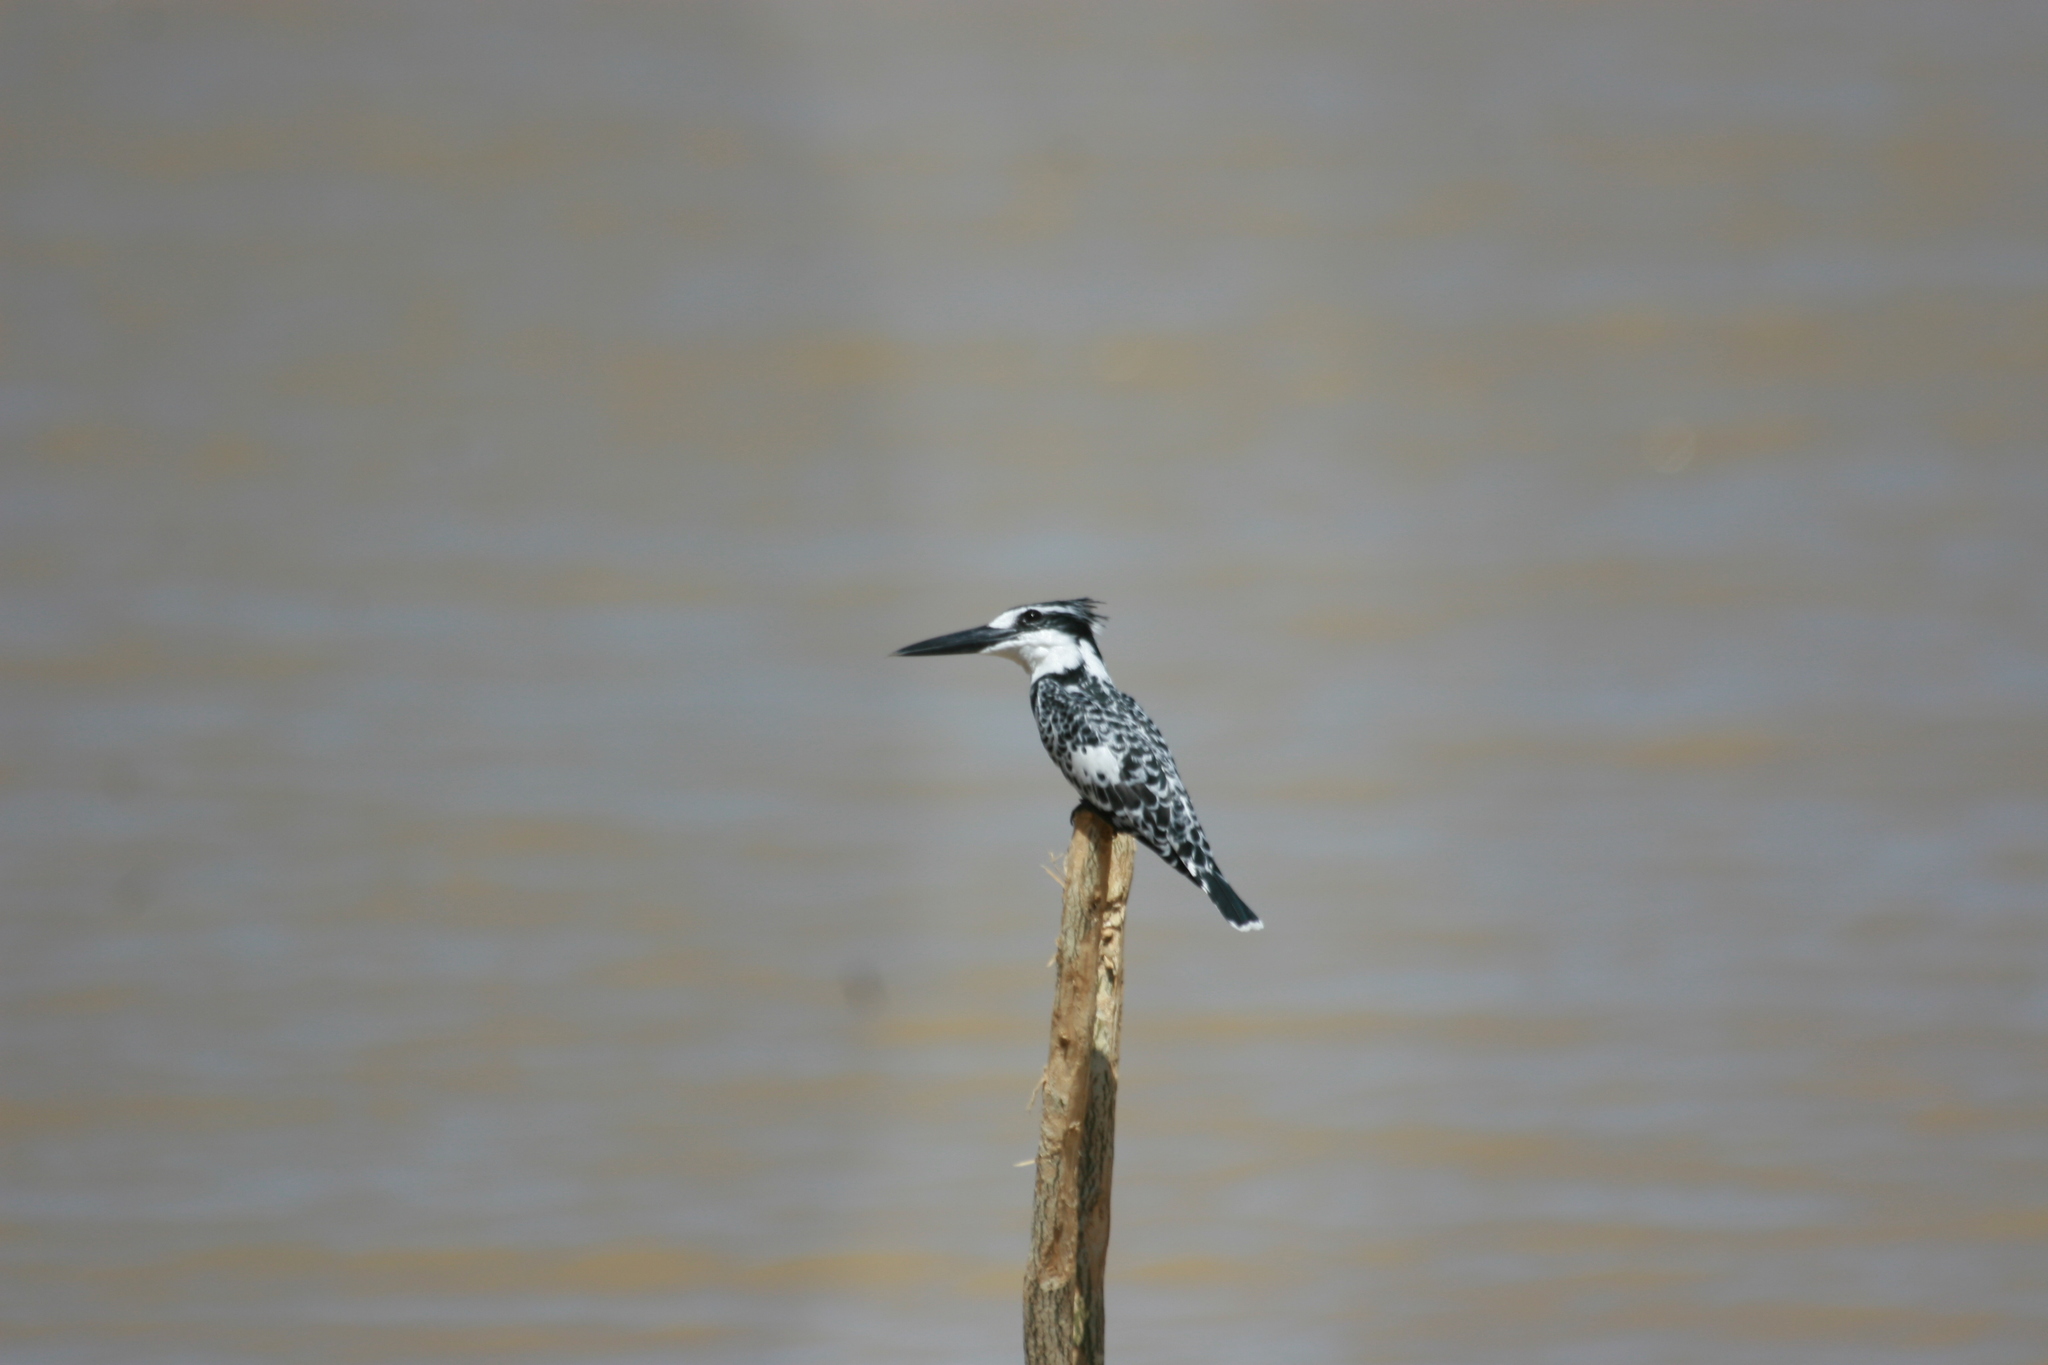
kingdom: Animalia
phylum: Chordata
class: Aves
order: Coraciiformes
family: Alcedinidae
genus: Ceryle
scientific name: Ceryle rudis
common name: Pied kingfisher
